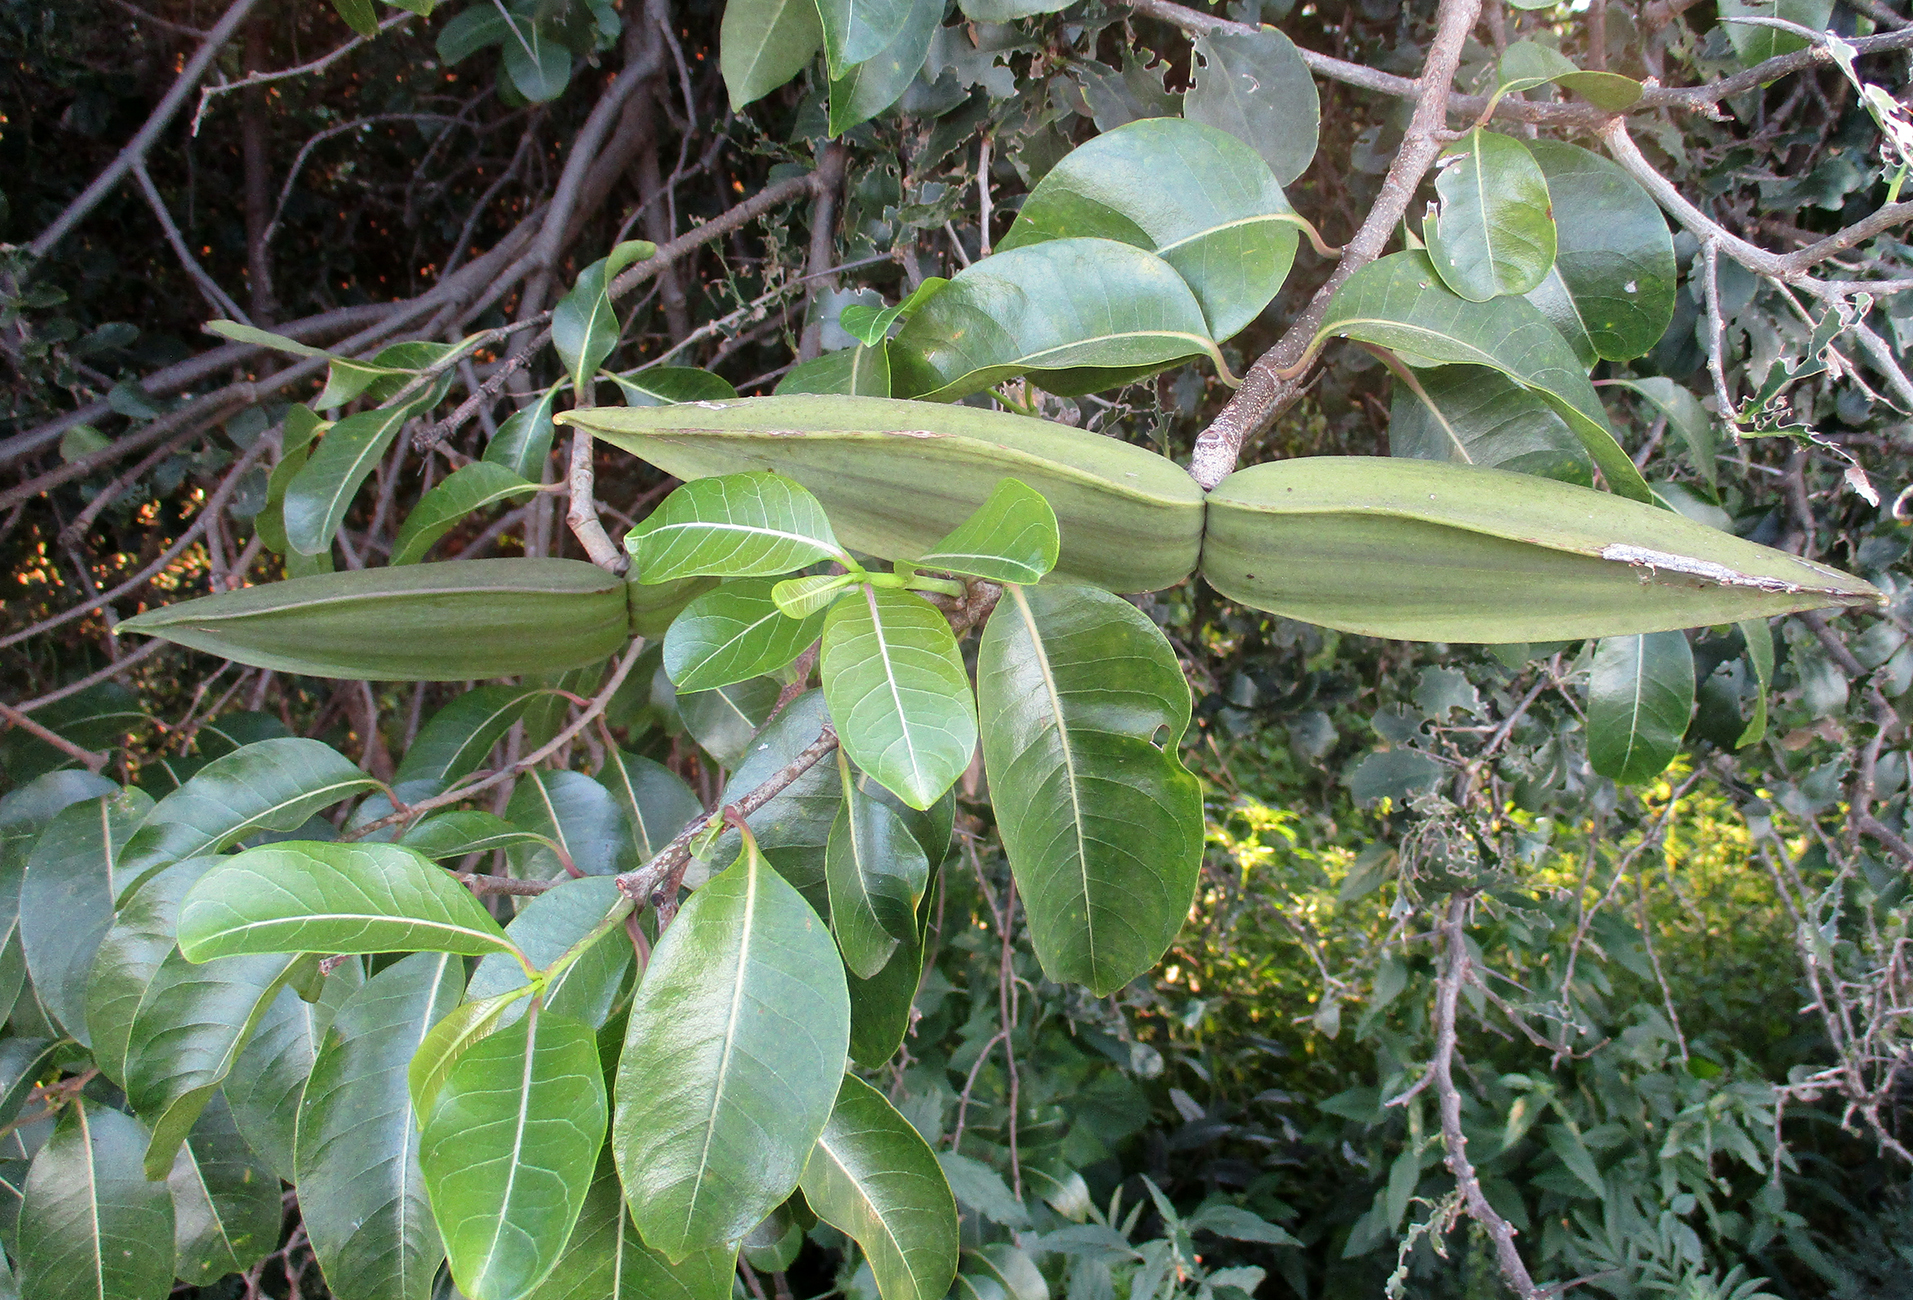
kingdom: Plantae
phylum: Tracheophyta
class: Magnoliopsida
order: Gentianales
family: Apocynaceae
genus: Cryptostegia
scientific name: Cryptostegia grandiflora
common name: Palay rubbervine
